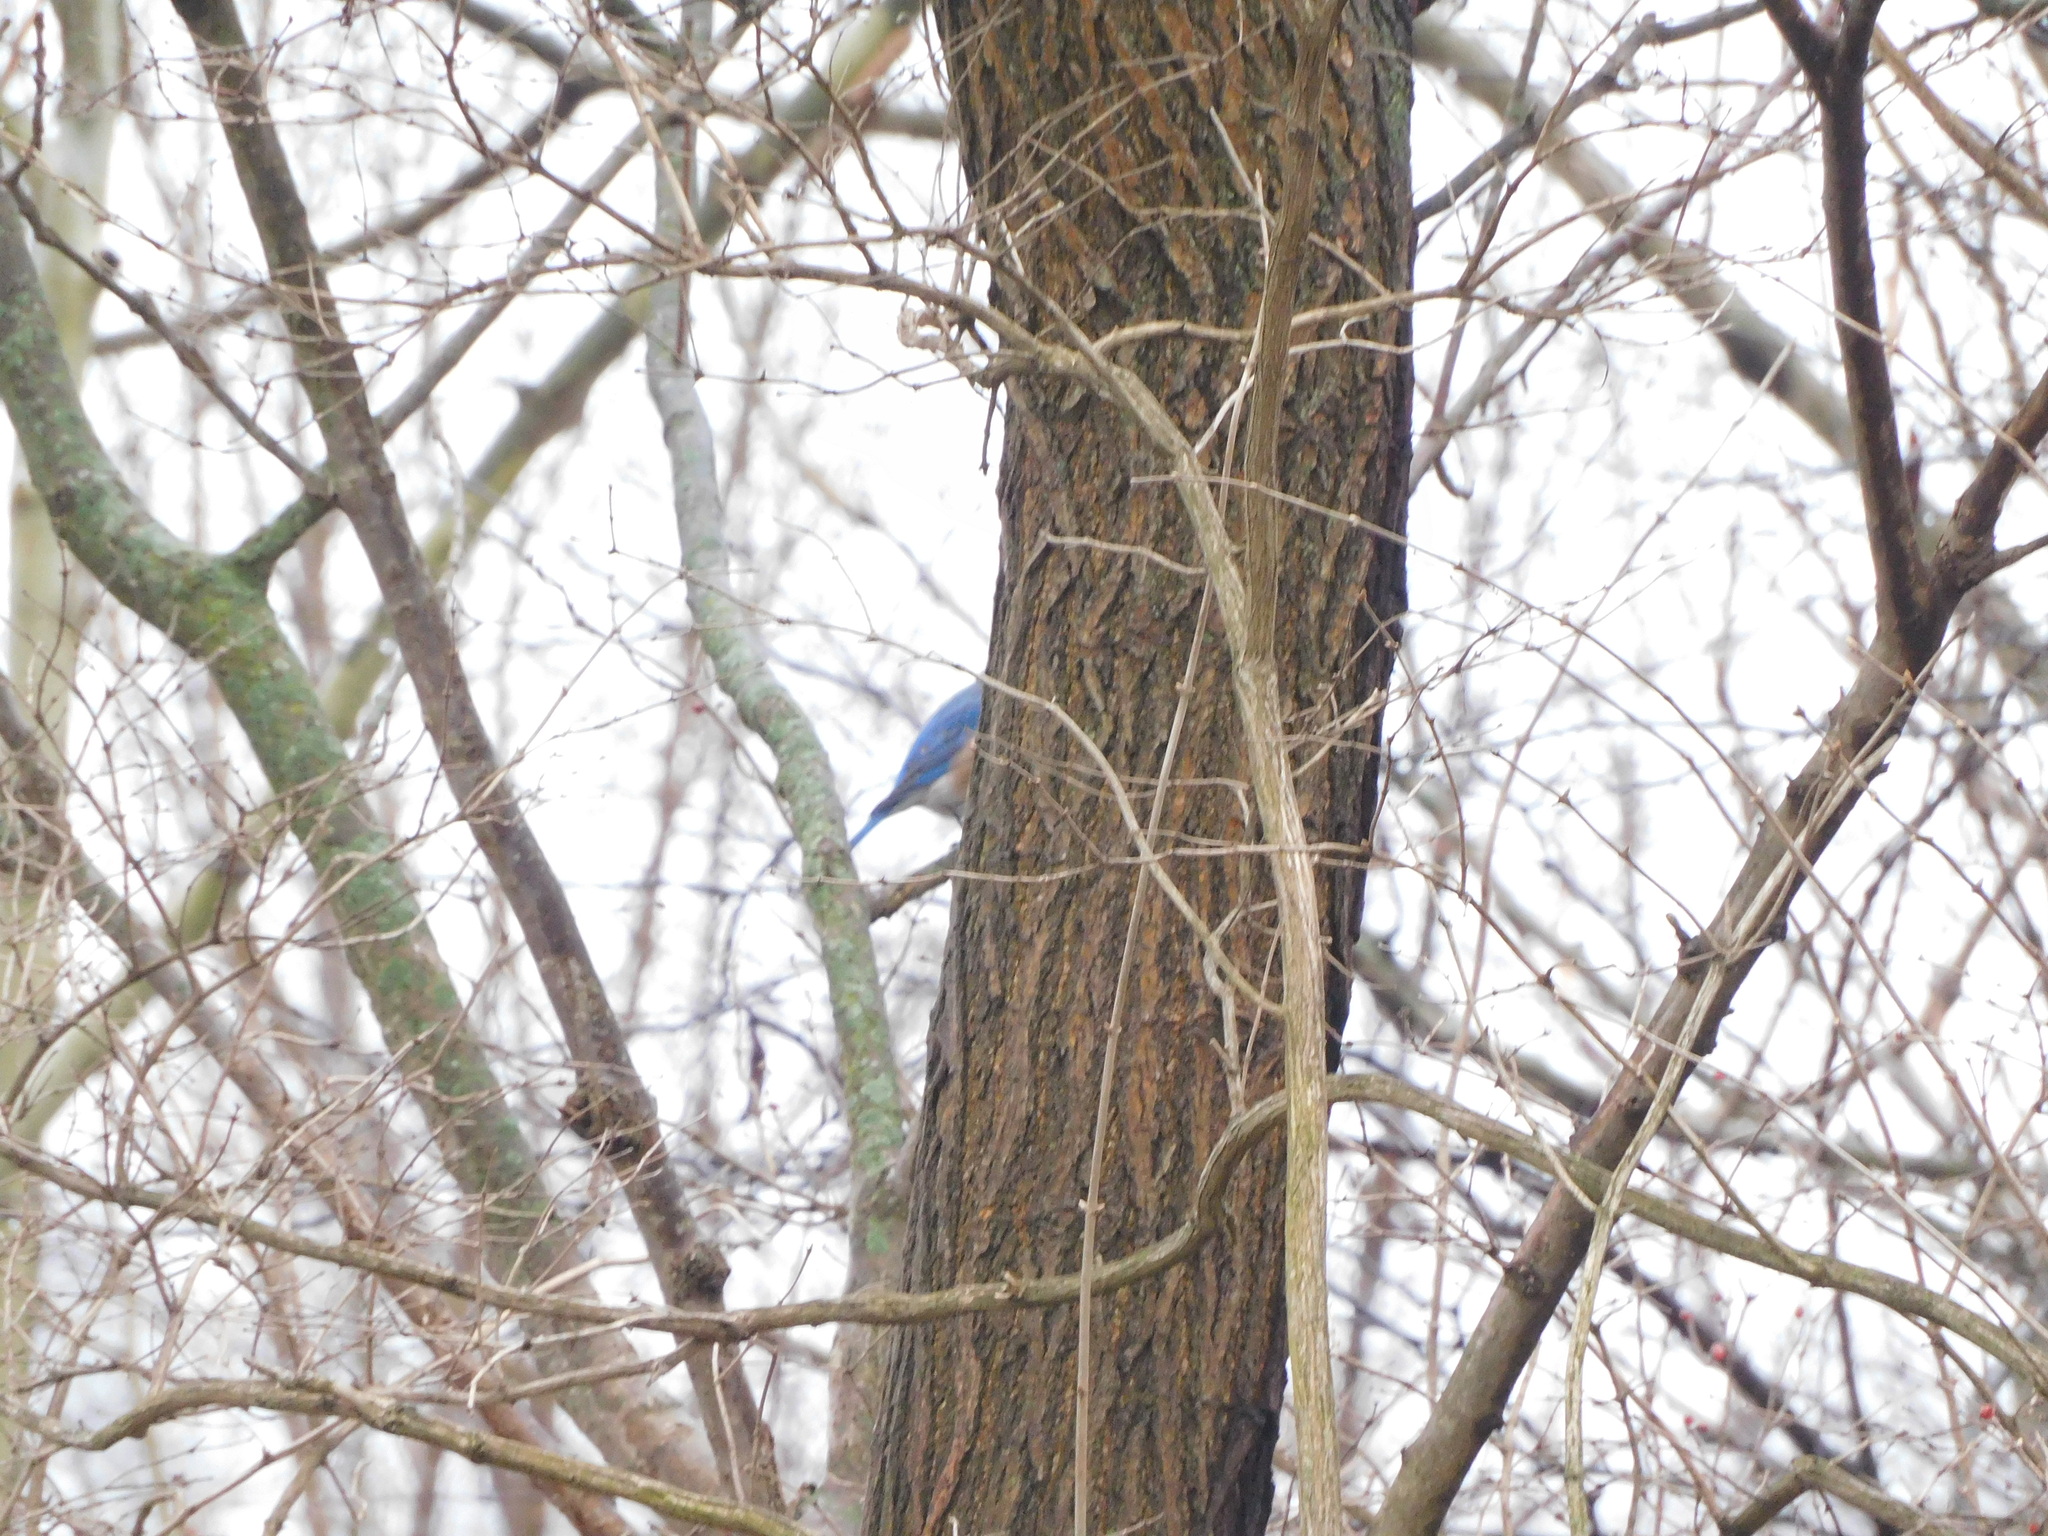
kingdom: Animalia
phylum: Chordata
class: Aves
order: Passeriformes
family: Turdidae
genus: Sialia
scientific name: Sialia sialis
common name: Eastern bluebird
